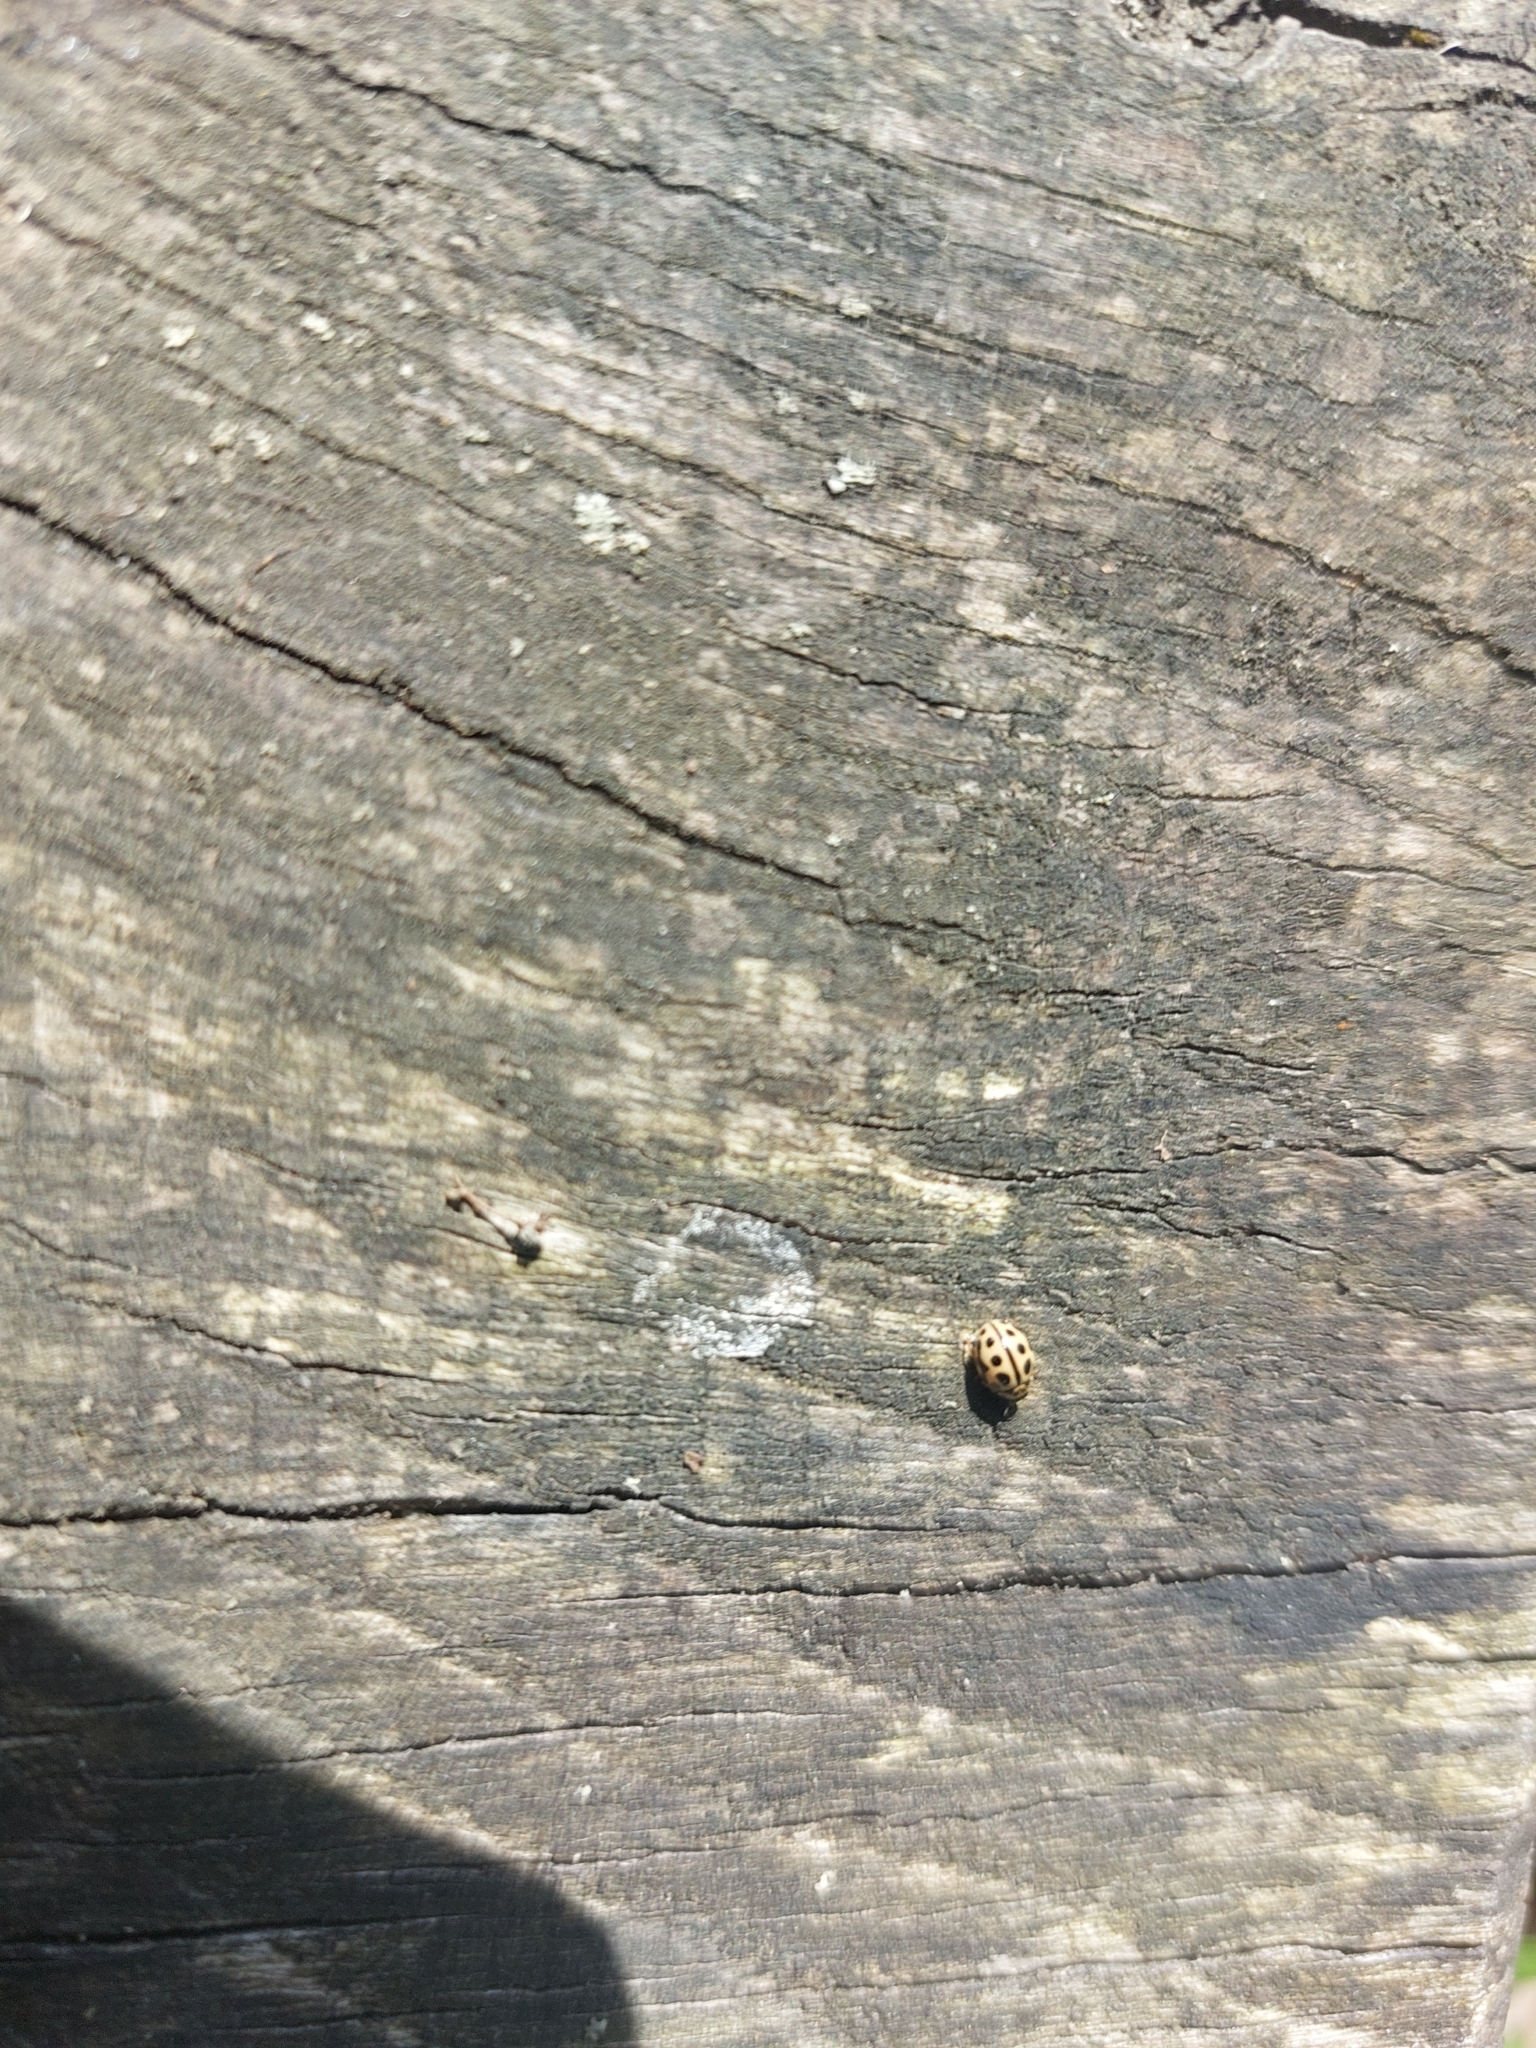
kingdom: Animalia
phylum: Arthropoda
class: Insecta
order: Coleoptera
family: Coccinellidae
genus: Tytthaspis
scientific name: Tytthaspis sedecimpunctata
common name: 16-spot ladybird
